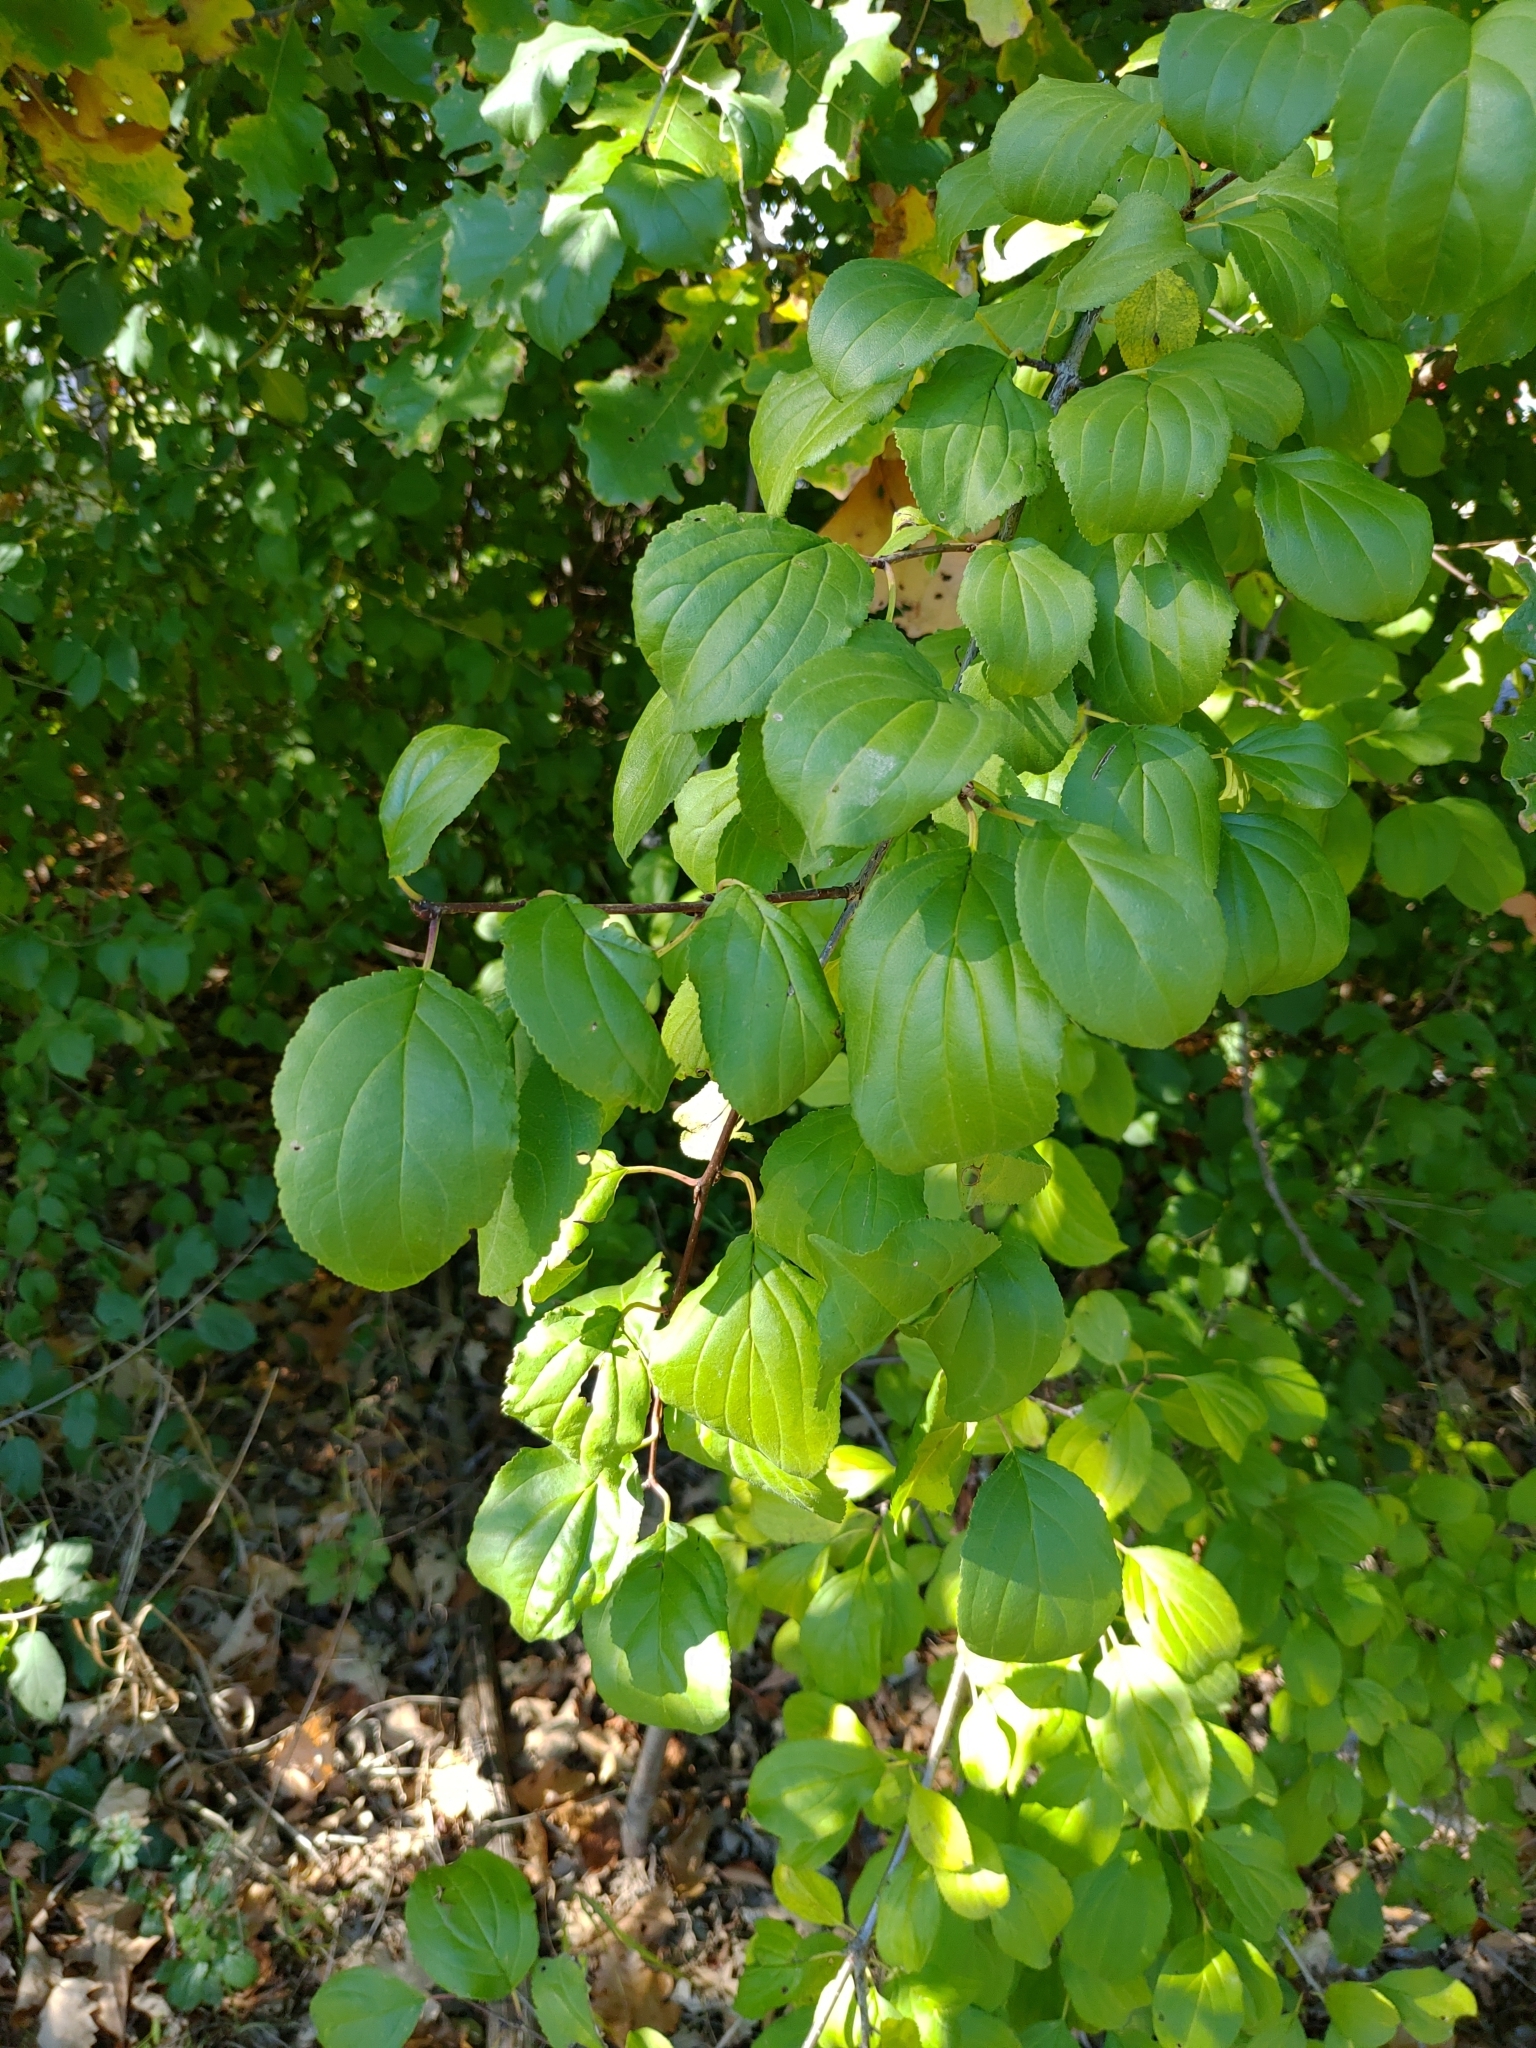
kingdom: Plantae
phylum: Tracheophyta
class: Magnoliopsida
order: Rosales
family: Rhamnaceae
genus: Rhamnus
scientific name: Rhamnus cathartica
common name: Common buckthorn
